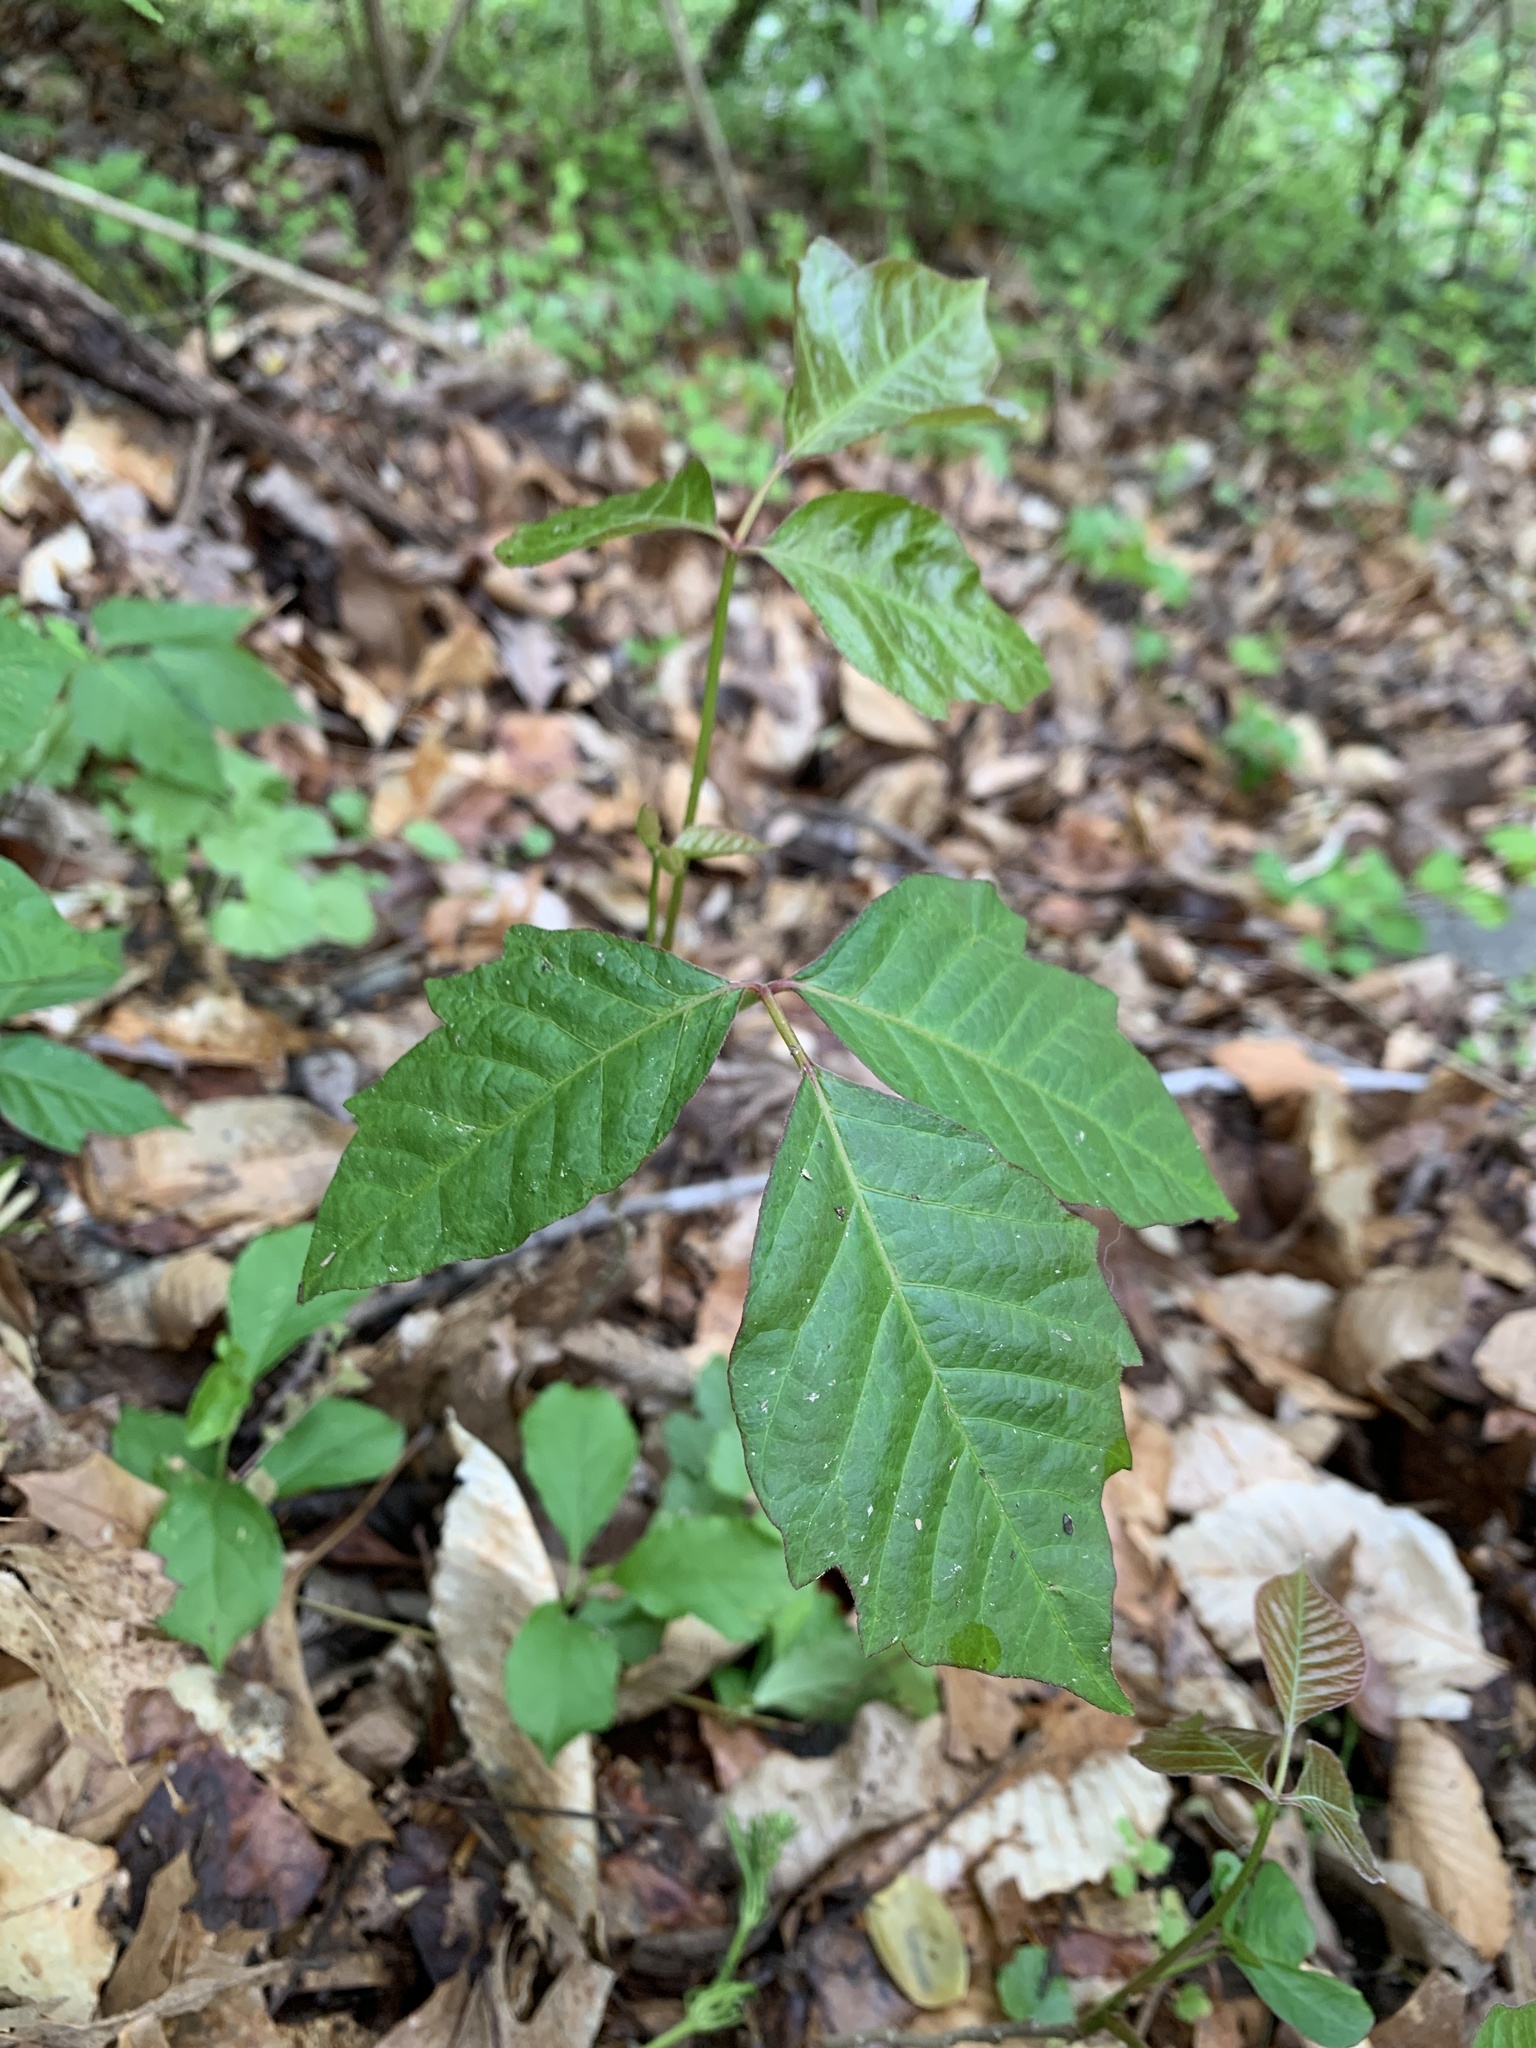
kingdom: Plantae
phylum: Tracheophyta
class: Magnoliopsida
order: Sapindales
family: Anacardiaceae
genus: Toxicodendron
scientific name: Toxicodendron radicans
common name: Poison ivy
